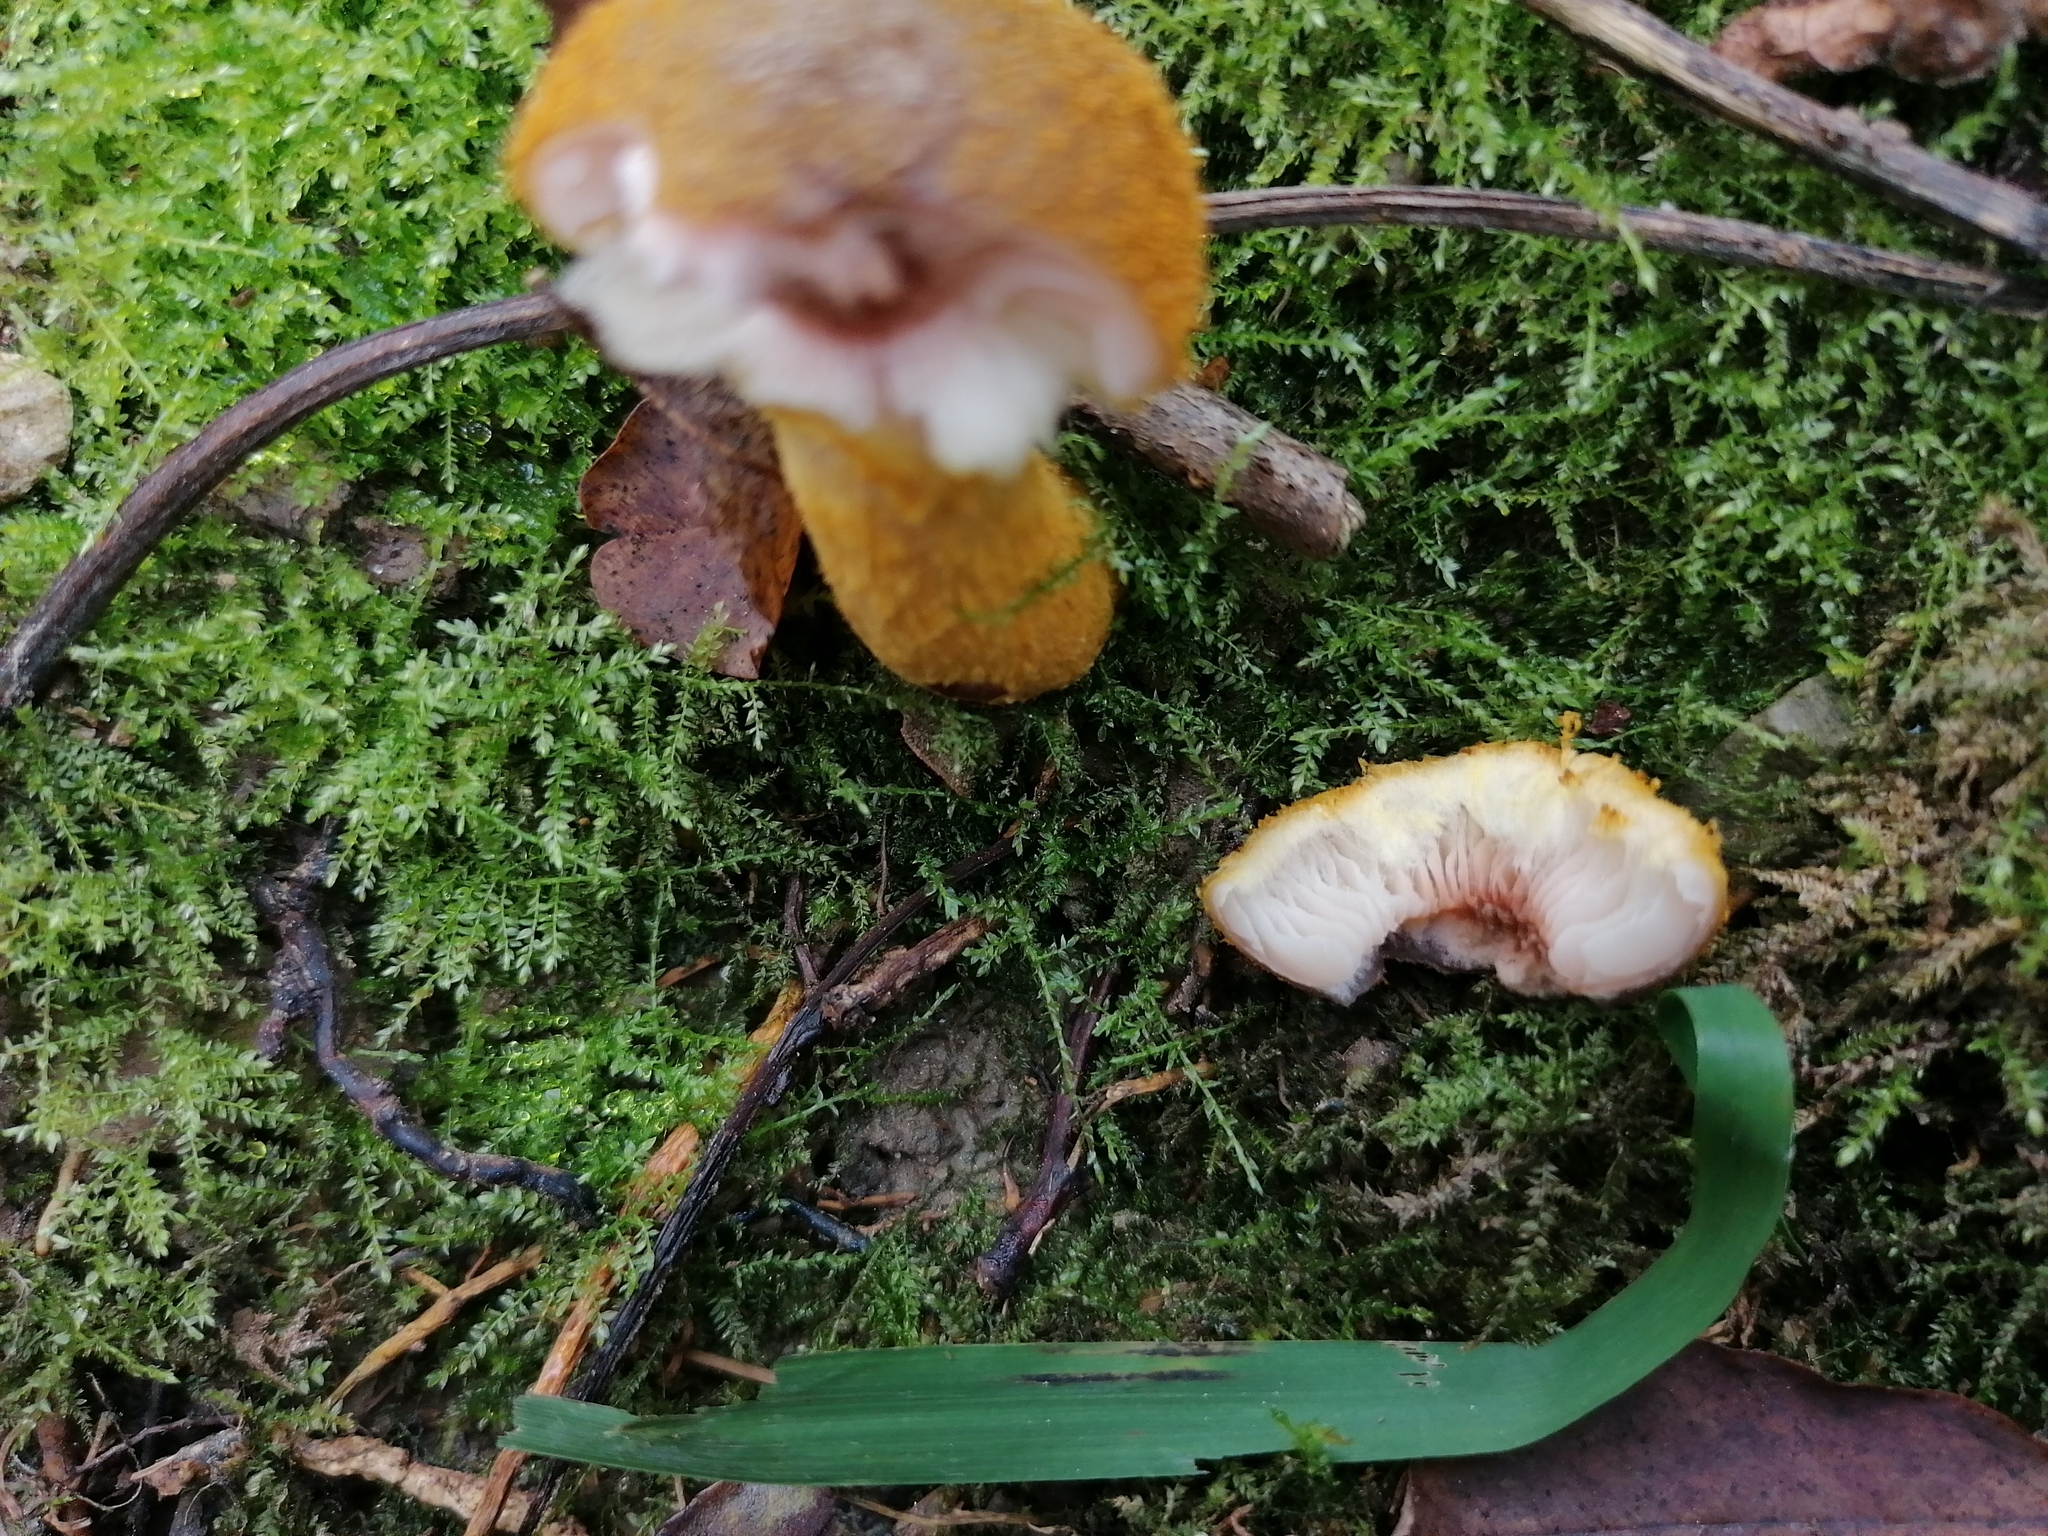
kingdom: Fungi
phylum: Basidiomycota
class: Agaricomycetes
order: Agaricales
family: Physalacriaceae
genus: Armillaria
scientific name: Armillaria gallica
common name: Bulbous honey fungus
